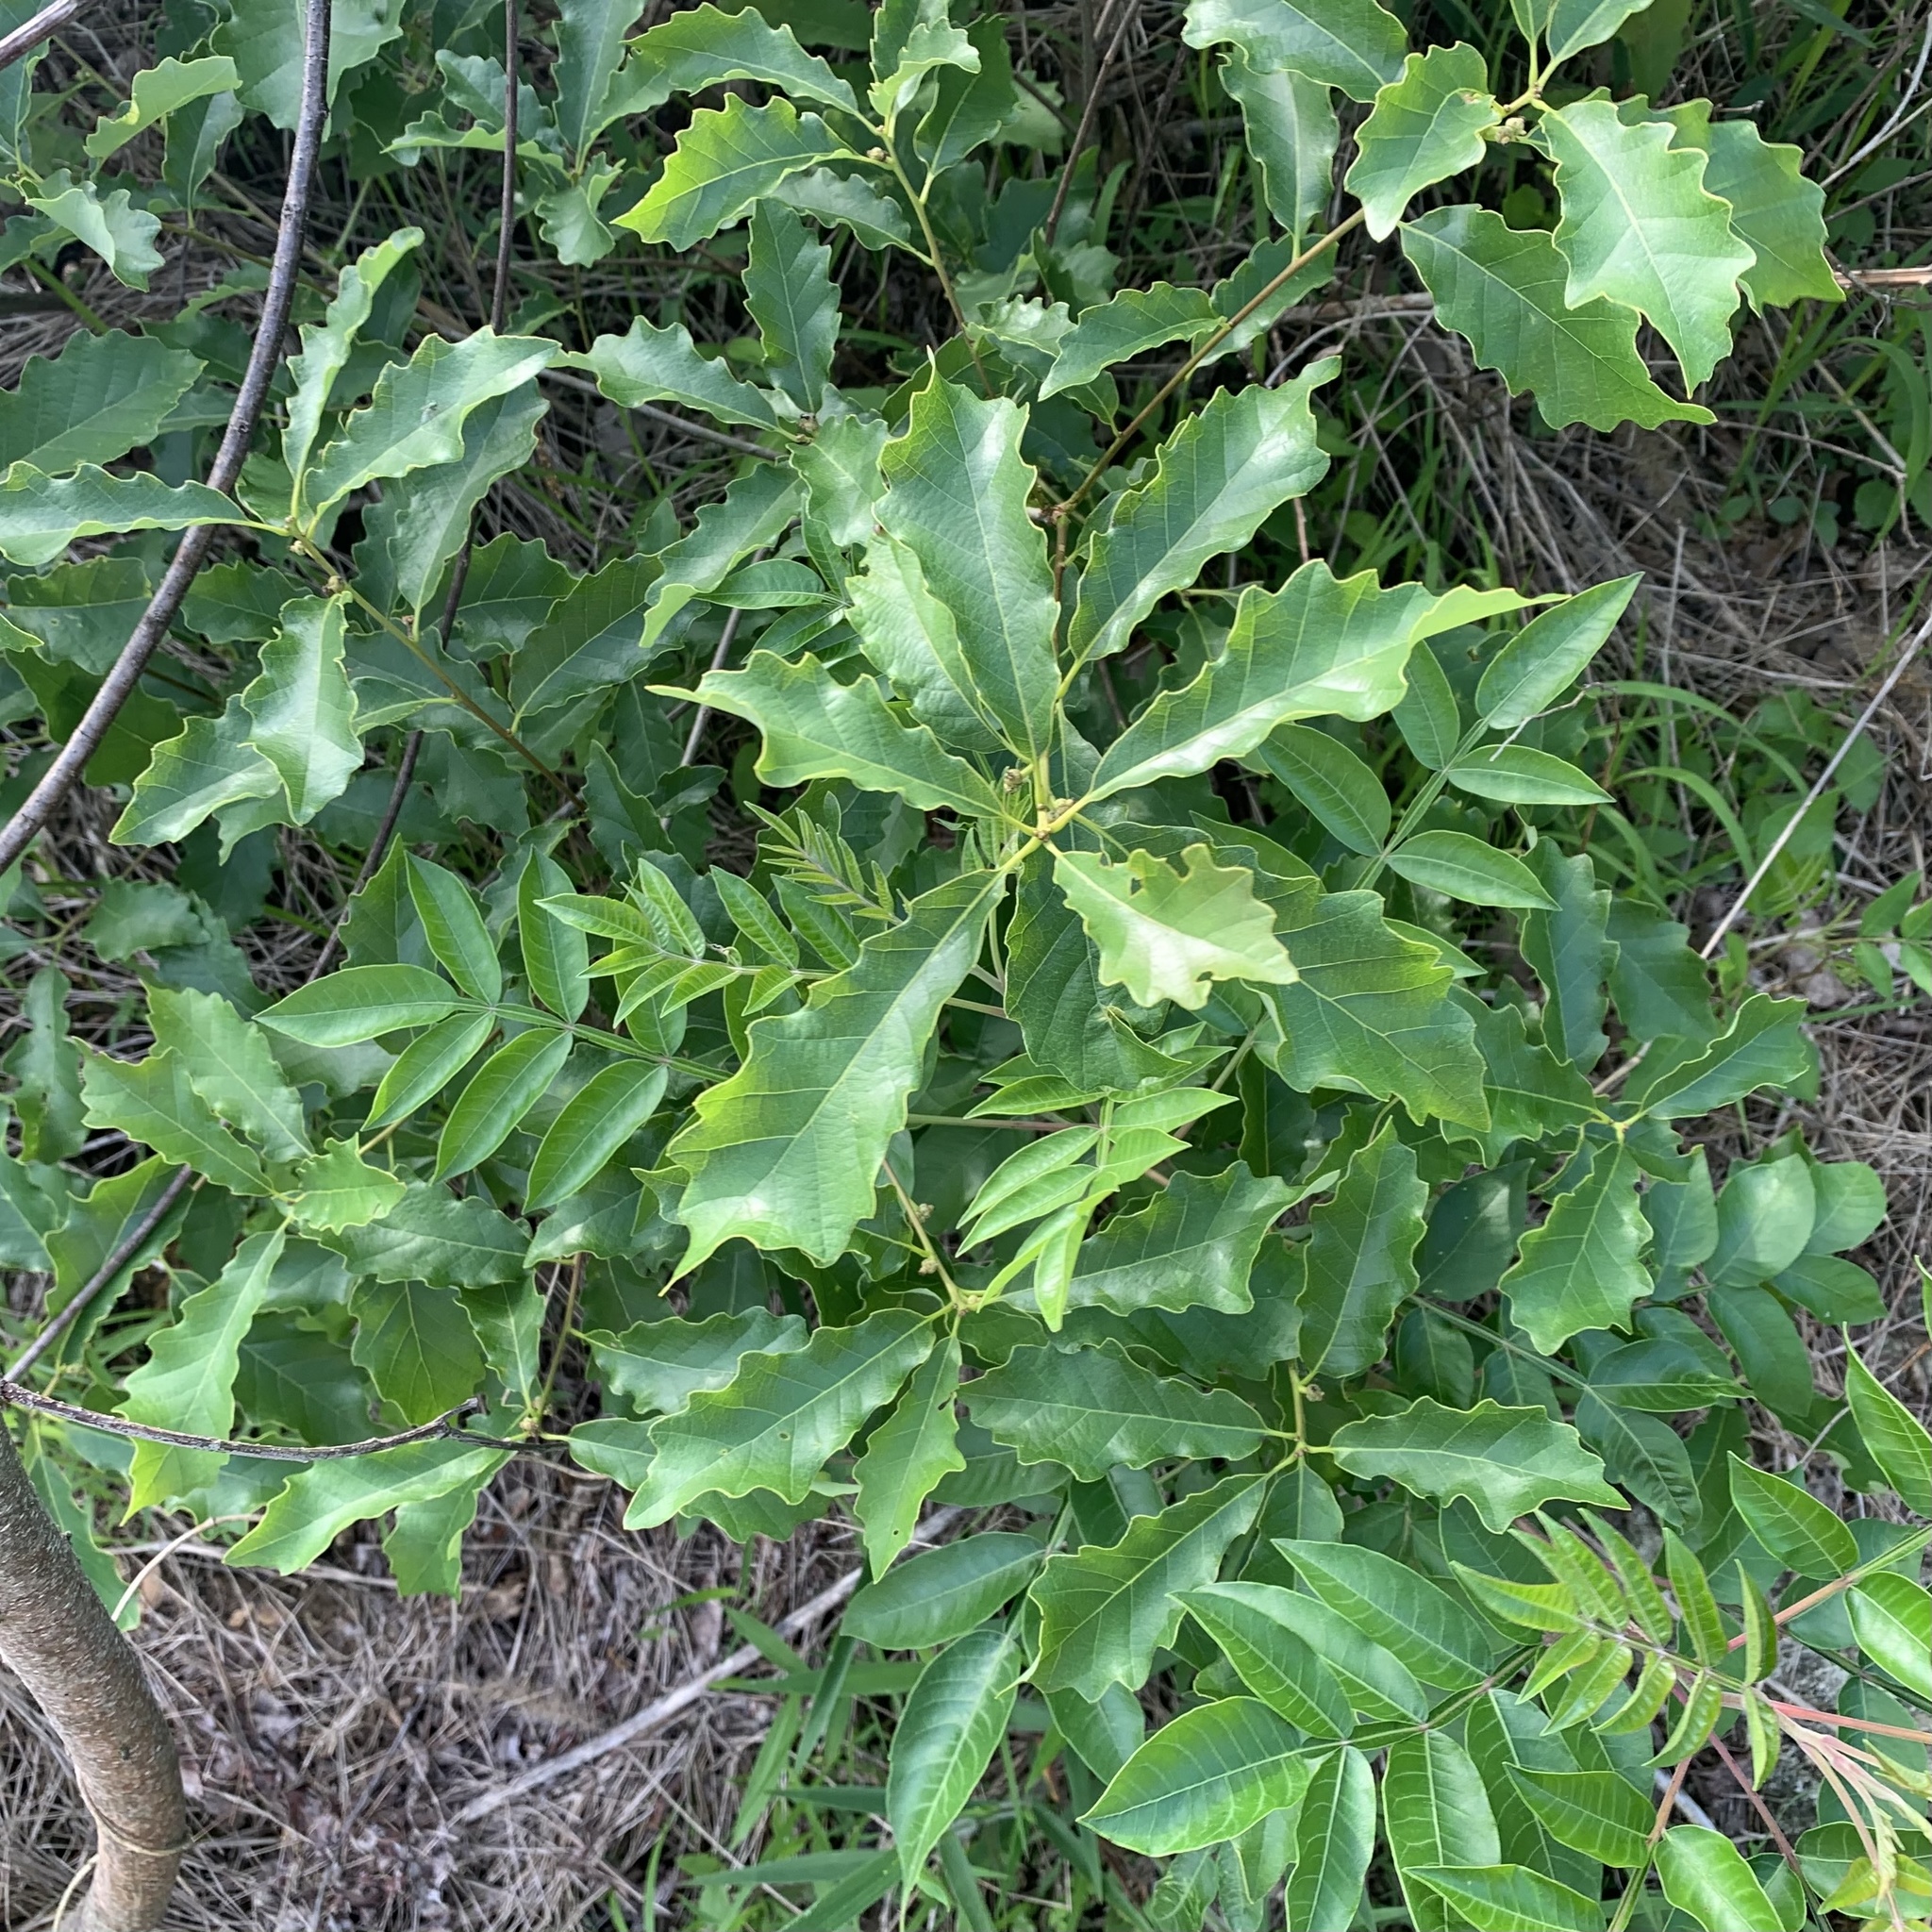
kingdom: Plantae
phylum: Tracheophyta
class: Magnoliopsida
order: Fagales
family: Fagaceae
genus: Quercus
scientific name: Quercus prinoides
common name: Dwarf chinkapin oak
